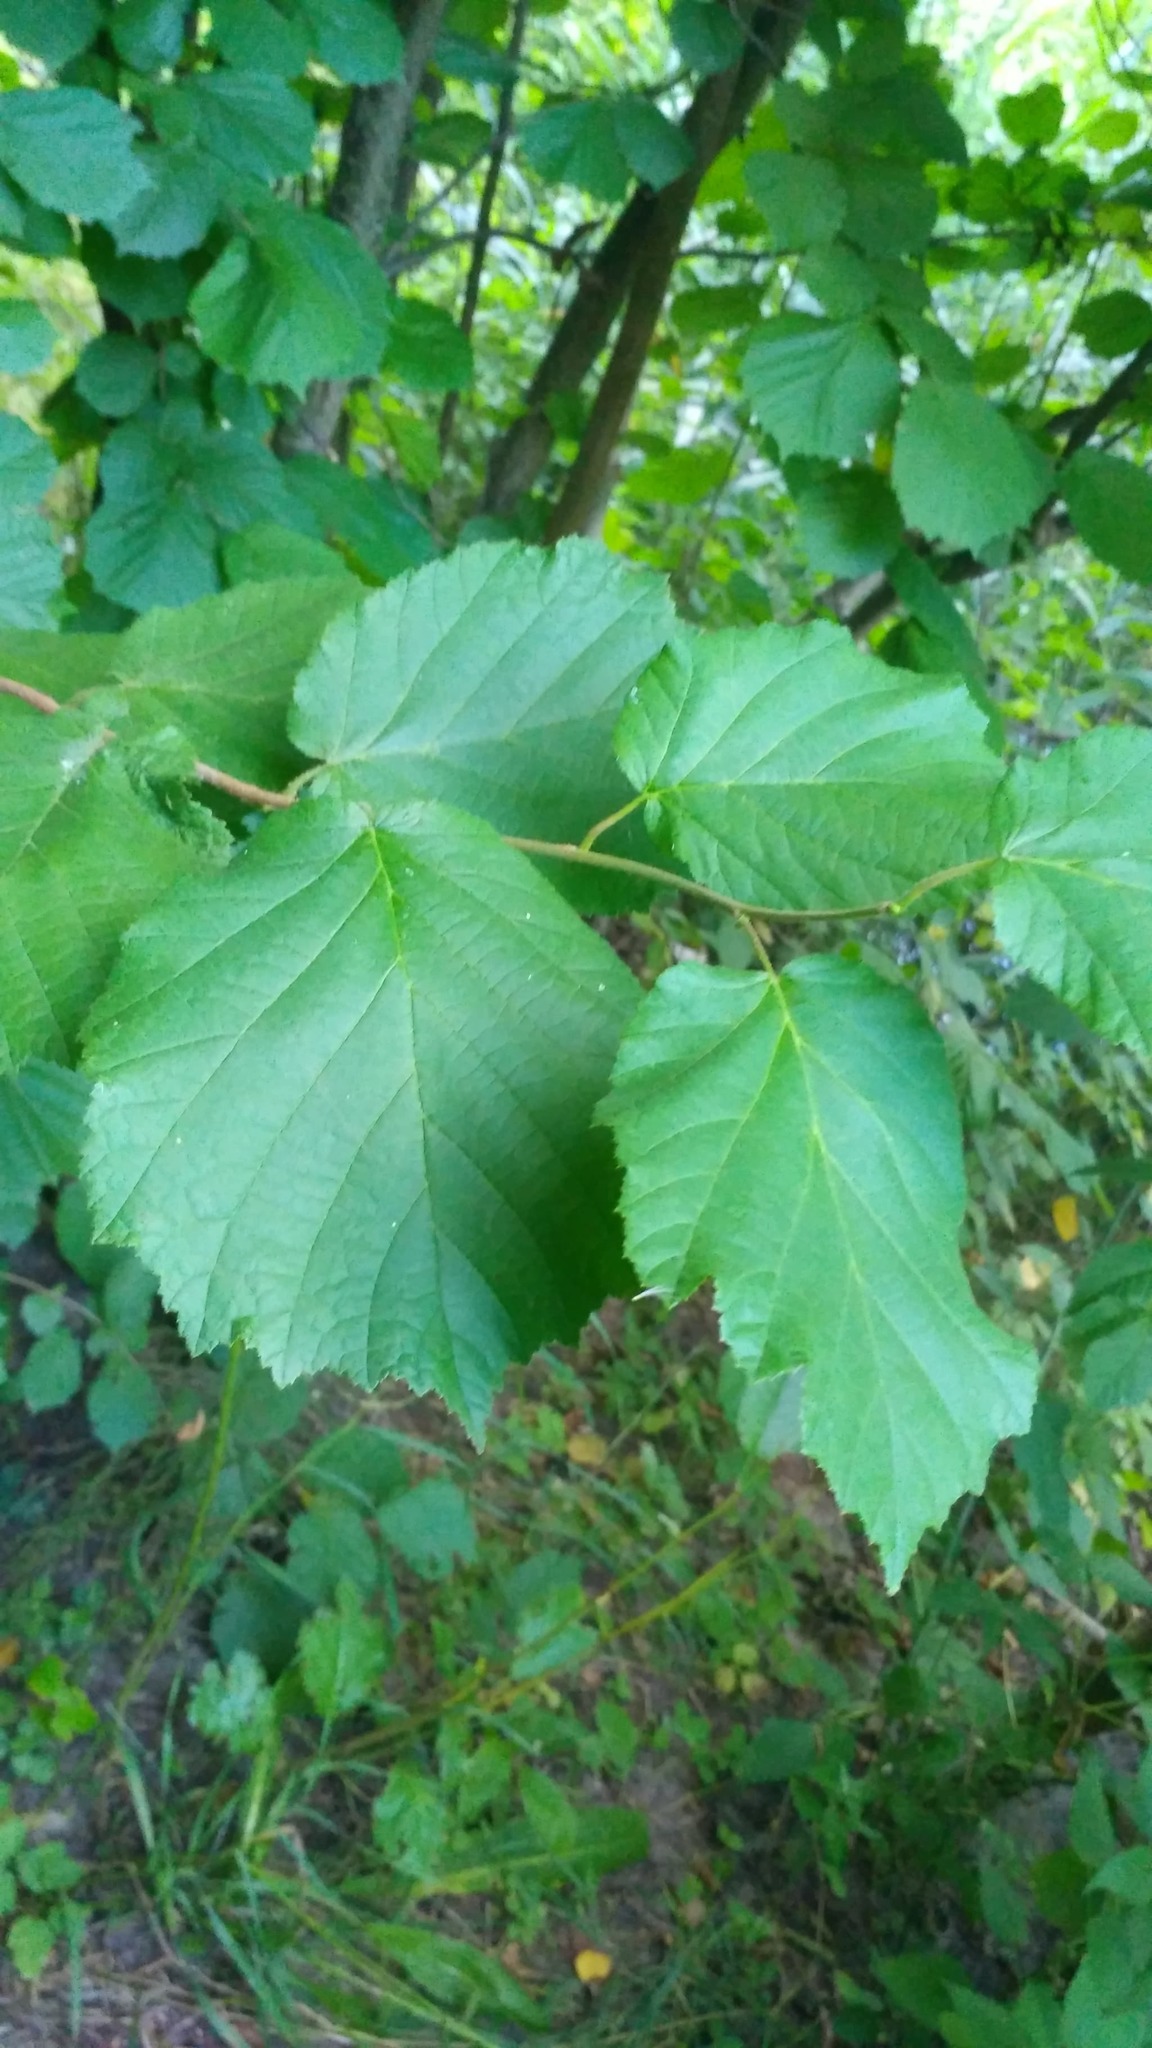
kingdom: Plantae
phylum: Tracheophyta
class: Magnoliopsida
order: Fagales
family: Betulaceae
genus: Corylus
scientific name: Corylus avellana
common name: European hazel
